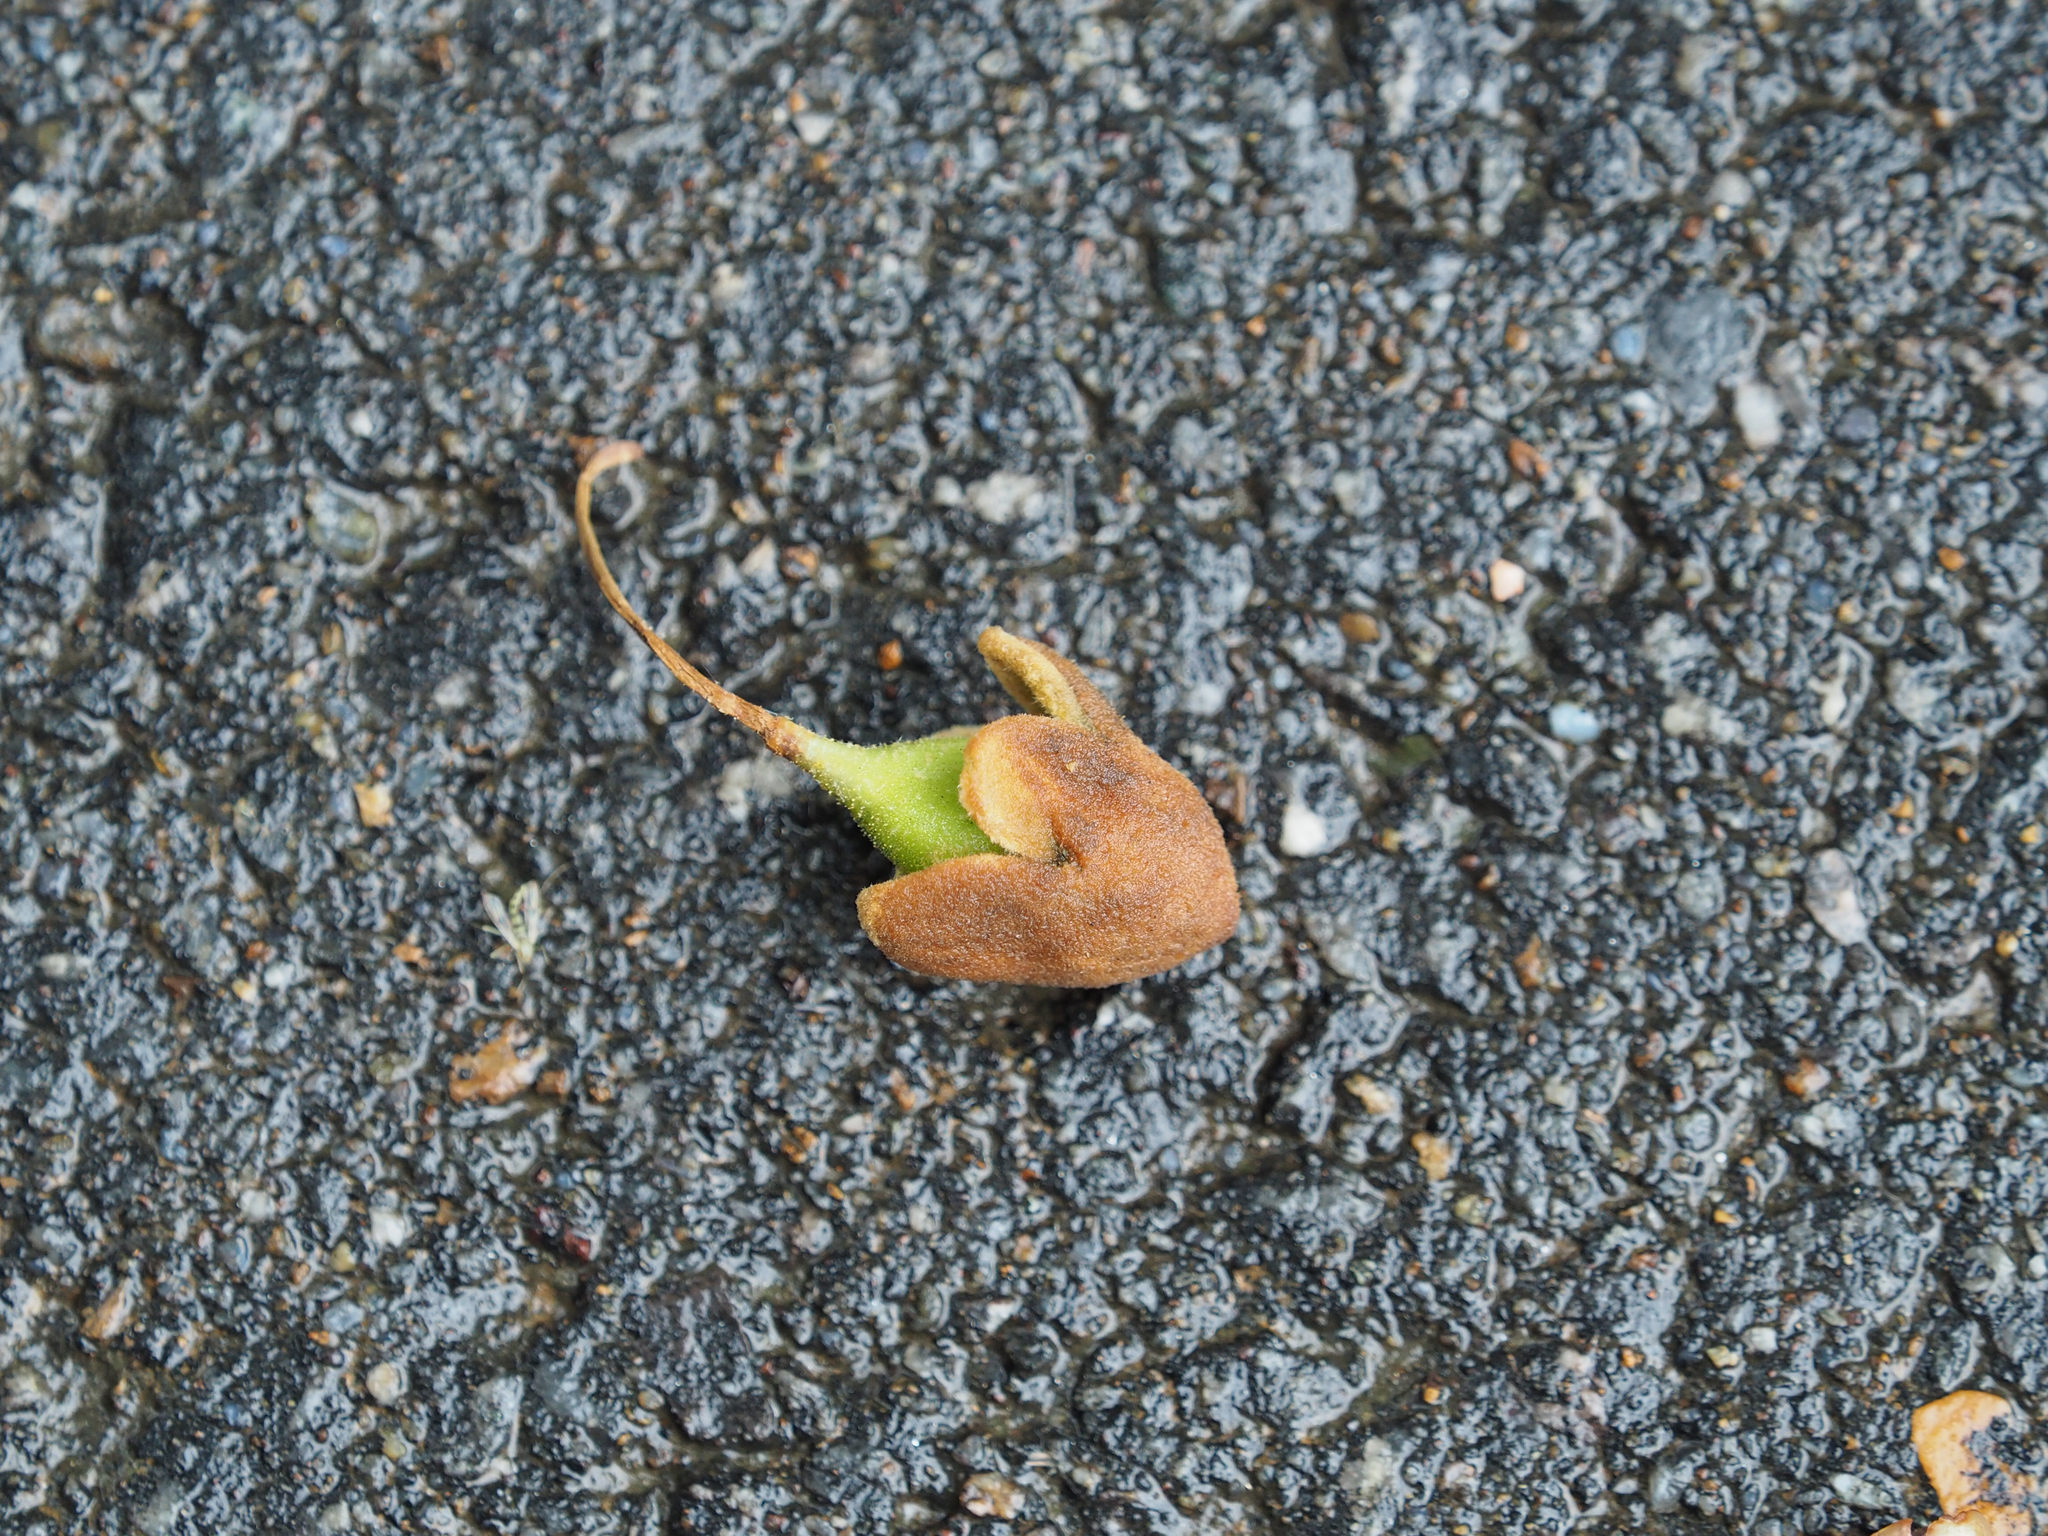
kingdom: Plantae
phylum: Tracheophyta
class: Magnoliopsida
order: Lamiales
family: Paulowniaceae
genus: Paulownia
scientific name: Paulownia tomentosa
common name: Foxglove-tree
